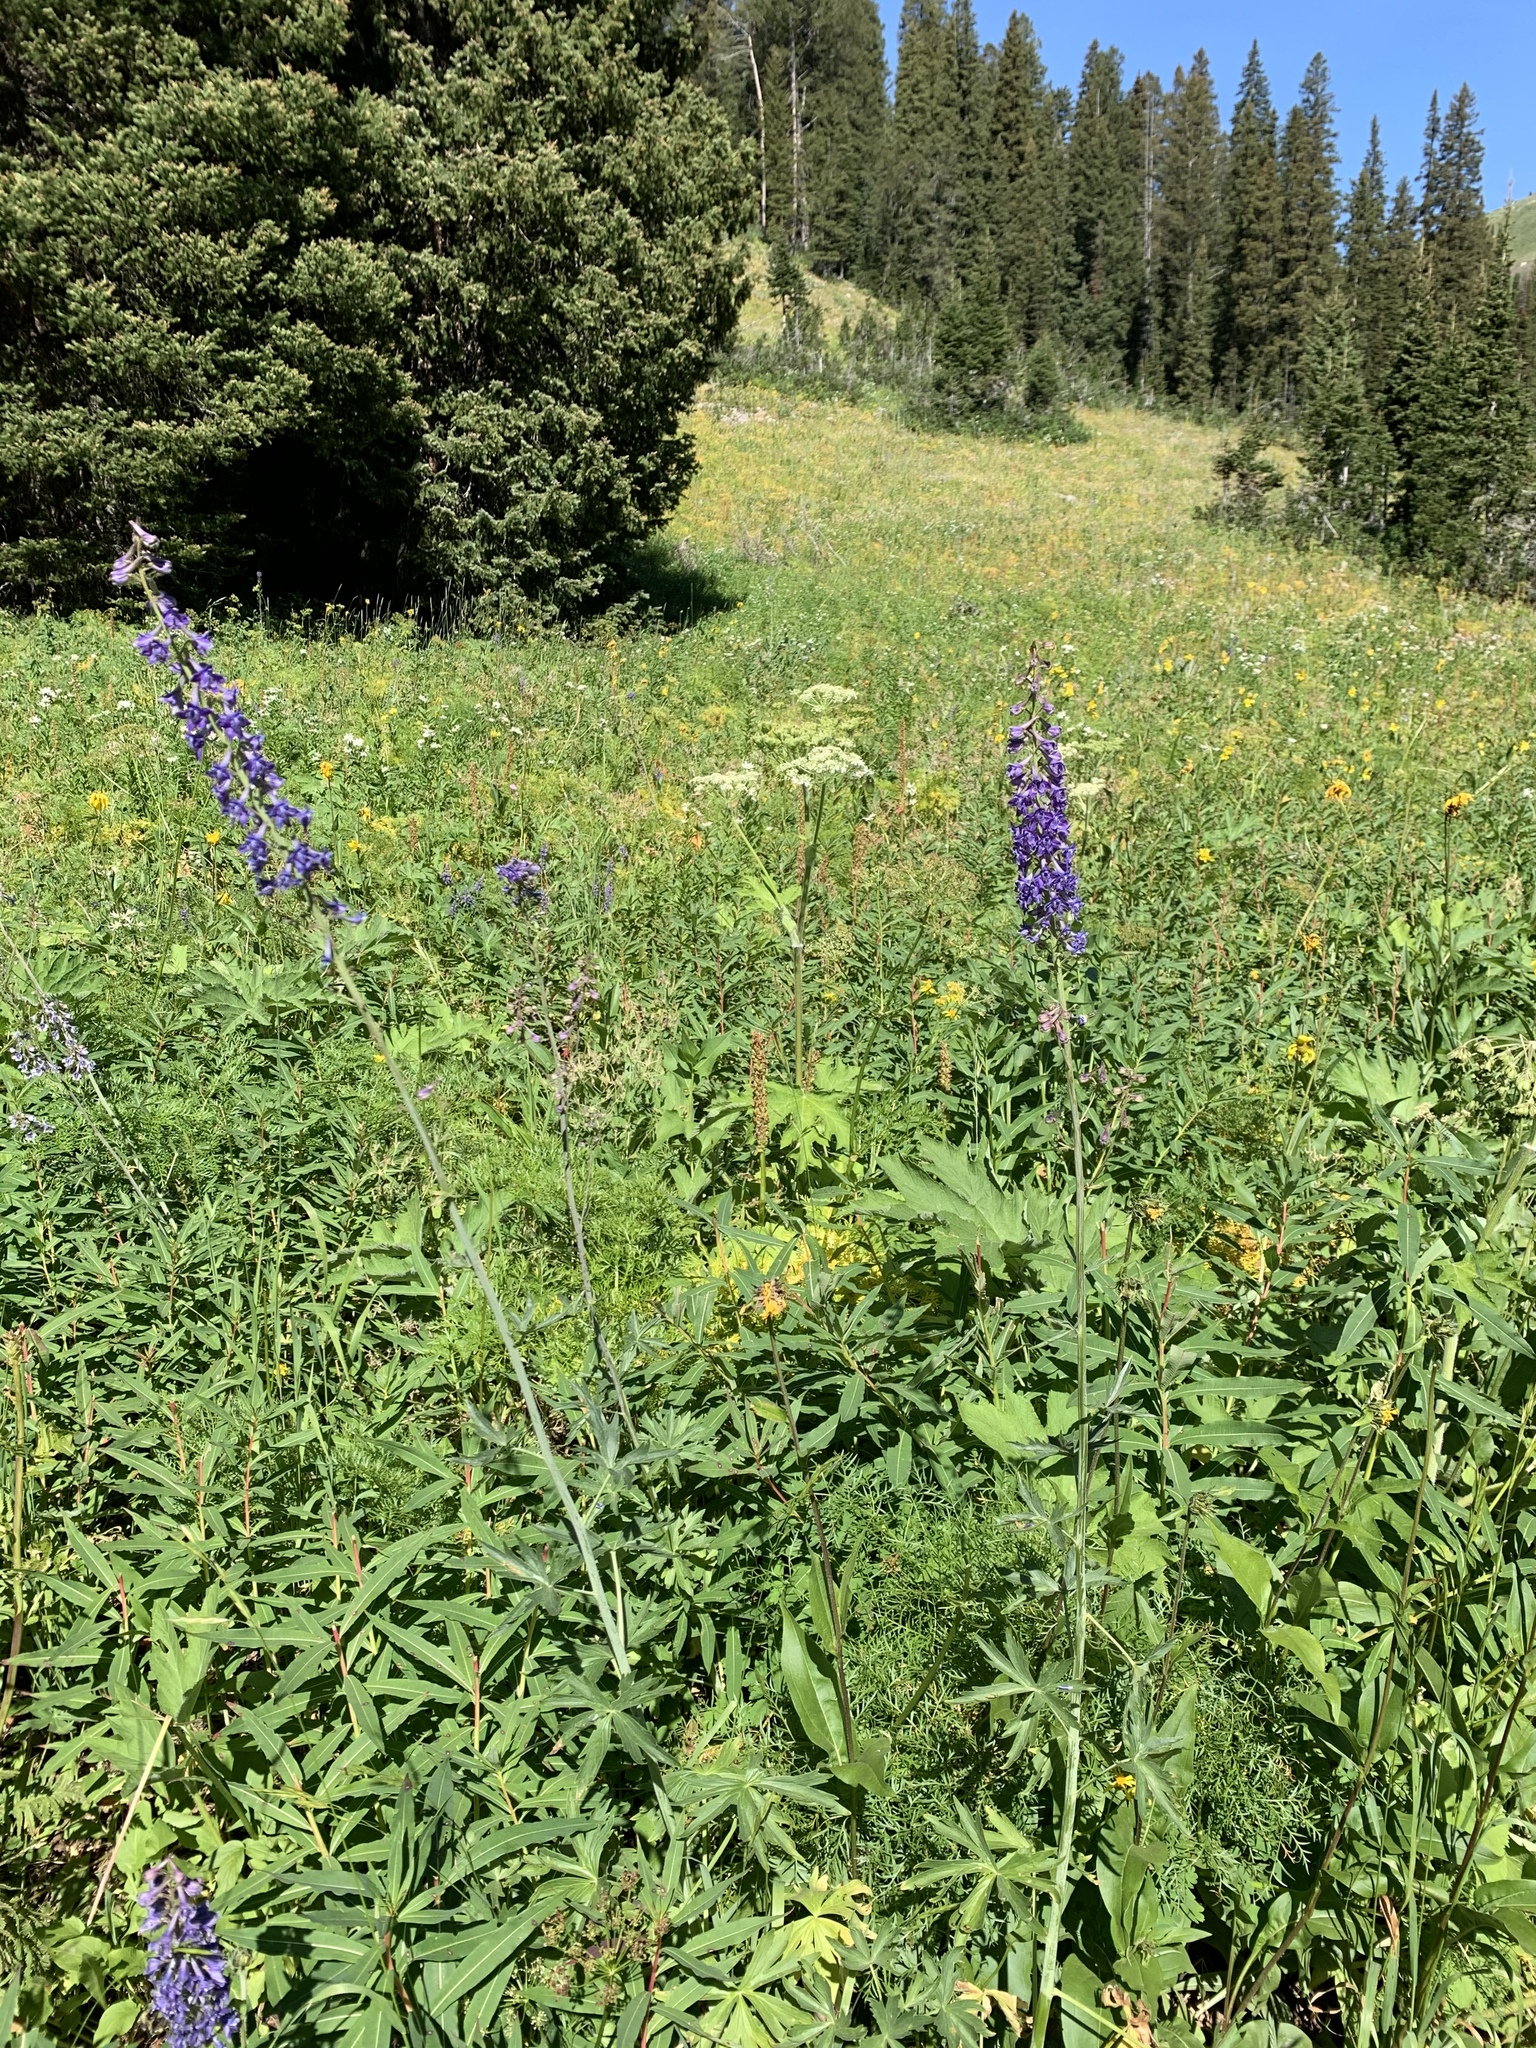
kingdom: Plantae
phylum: Tracheophyta
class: Magnoliopsida
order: Ranunculales
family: Ranunculaceae
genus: Delphinium
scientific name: Delphinium occidentale
